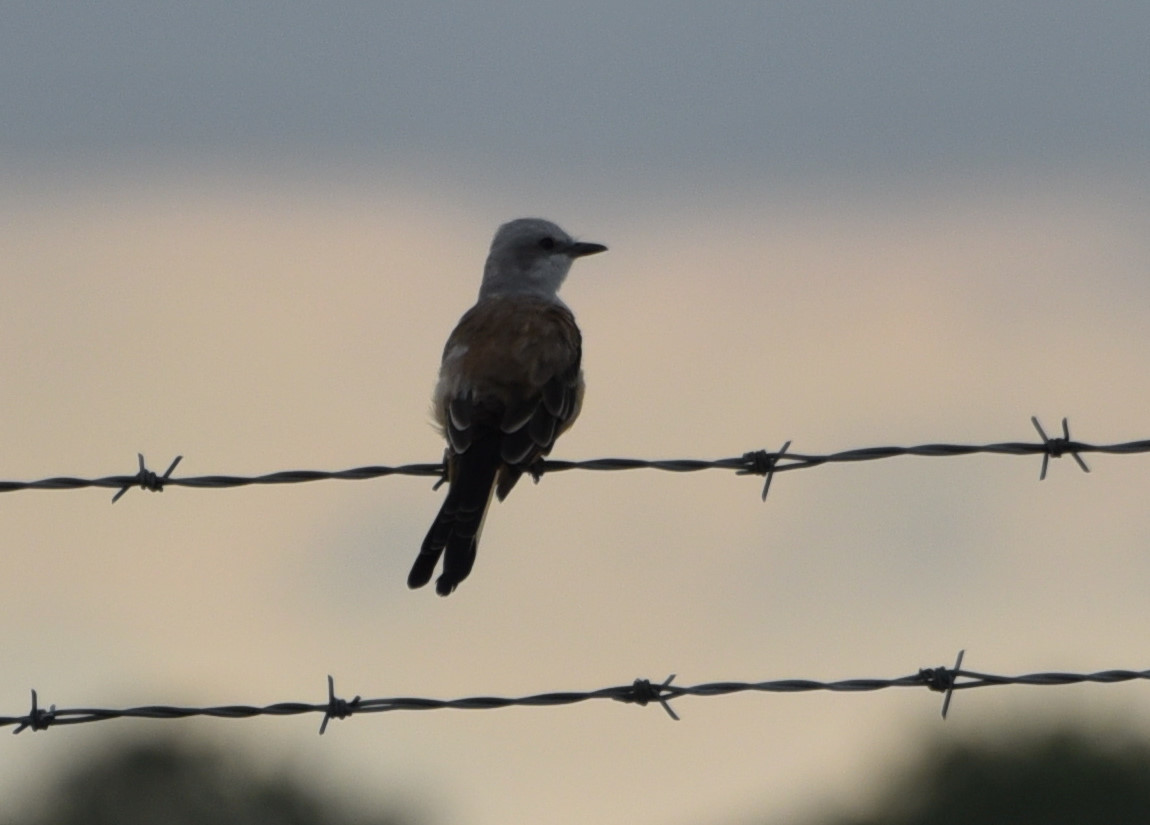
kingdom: Animalia
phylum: Chordata
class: Aves
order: Passeriformes
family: Tyrannidae
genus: Tyrannus
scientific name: Tyrannus forficatus
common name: Scissor-tailed flycatcher
